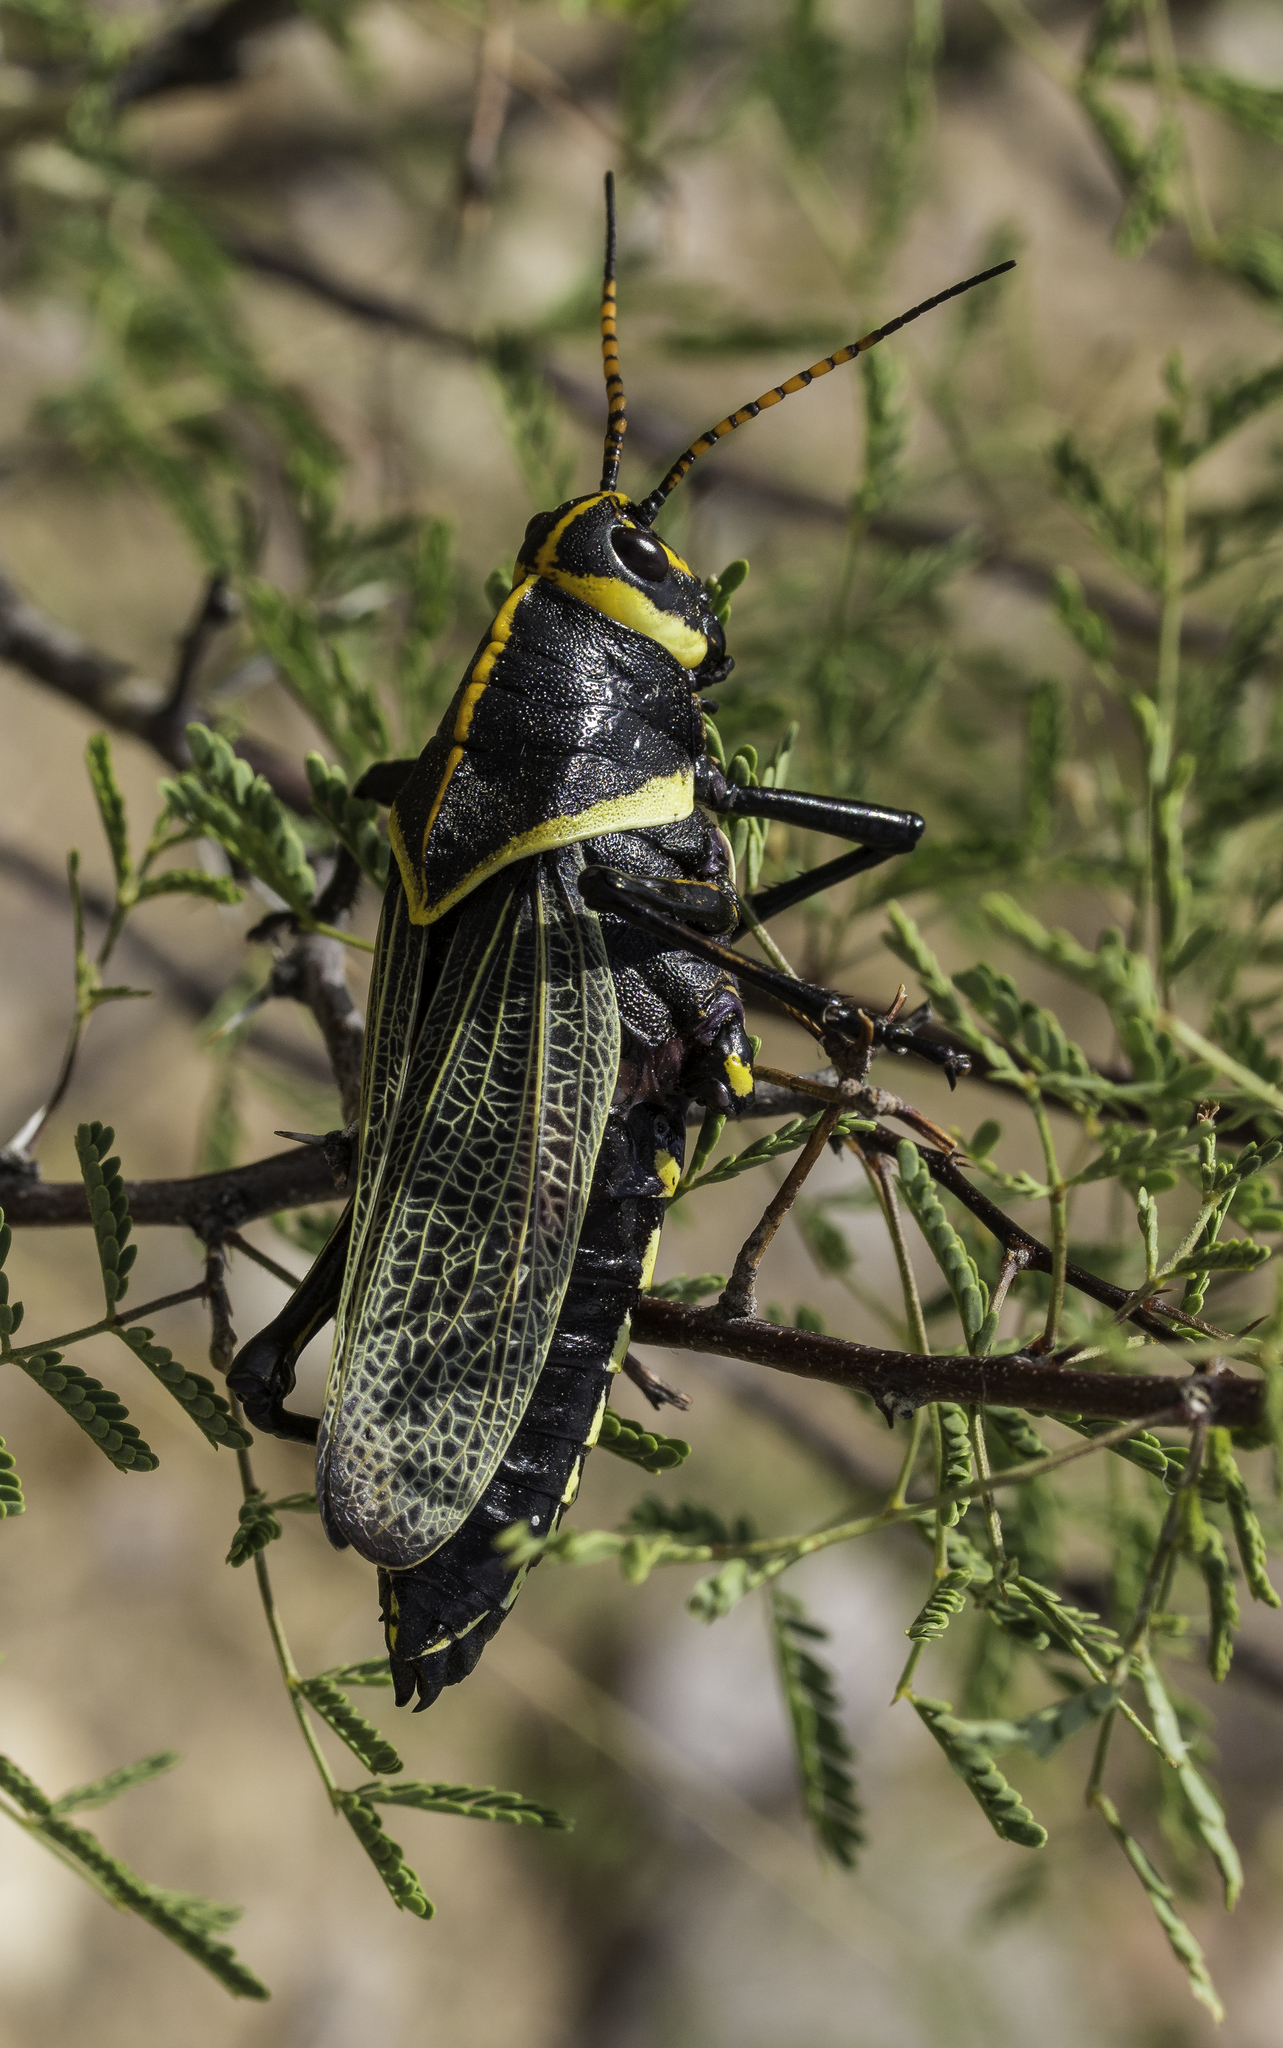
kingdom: Animalia
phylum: Arthropoda
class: Insecta
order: Orthoptera
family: Romaleidae
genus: Romalea
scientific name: Romalea
